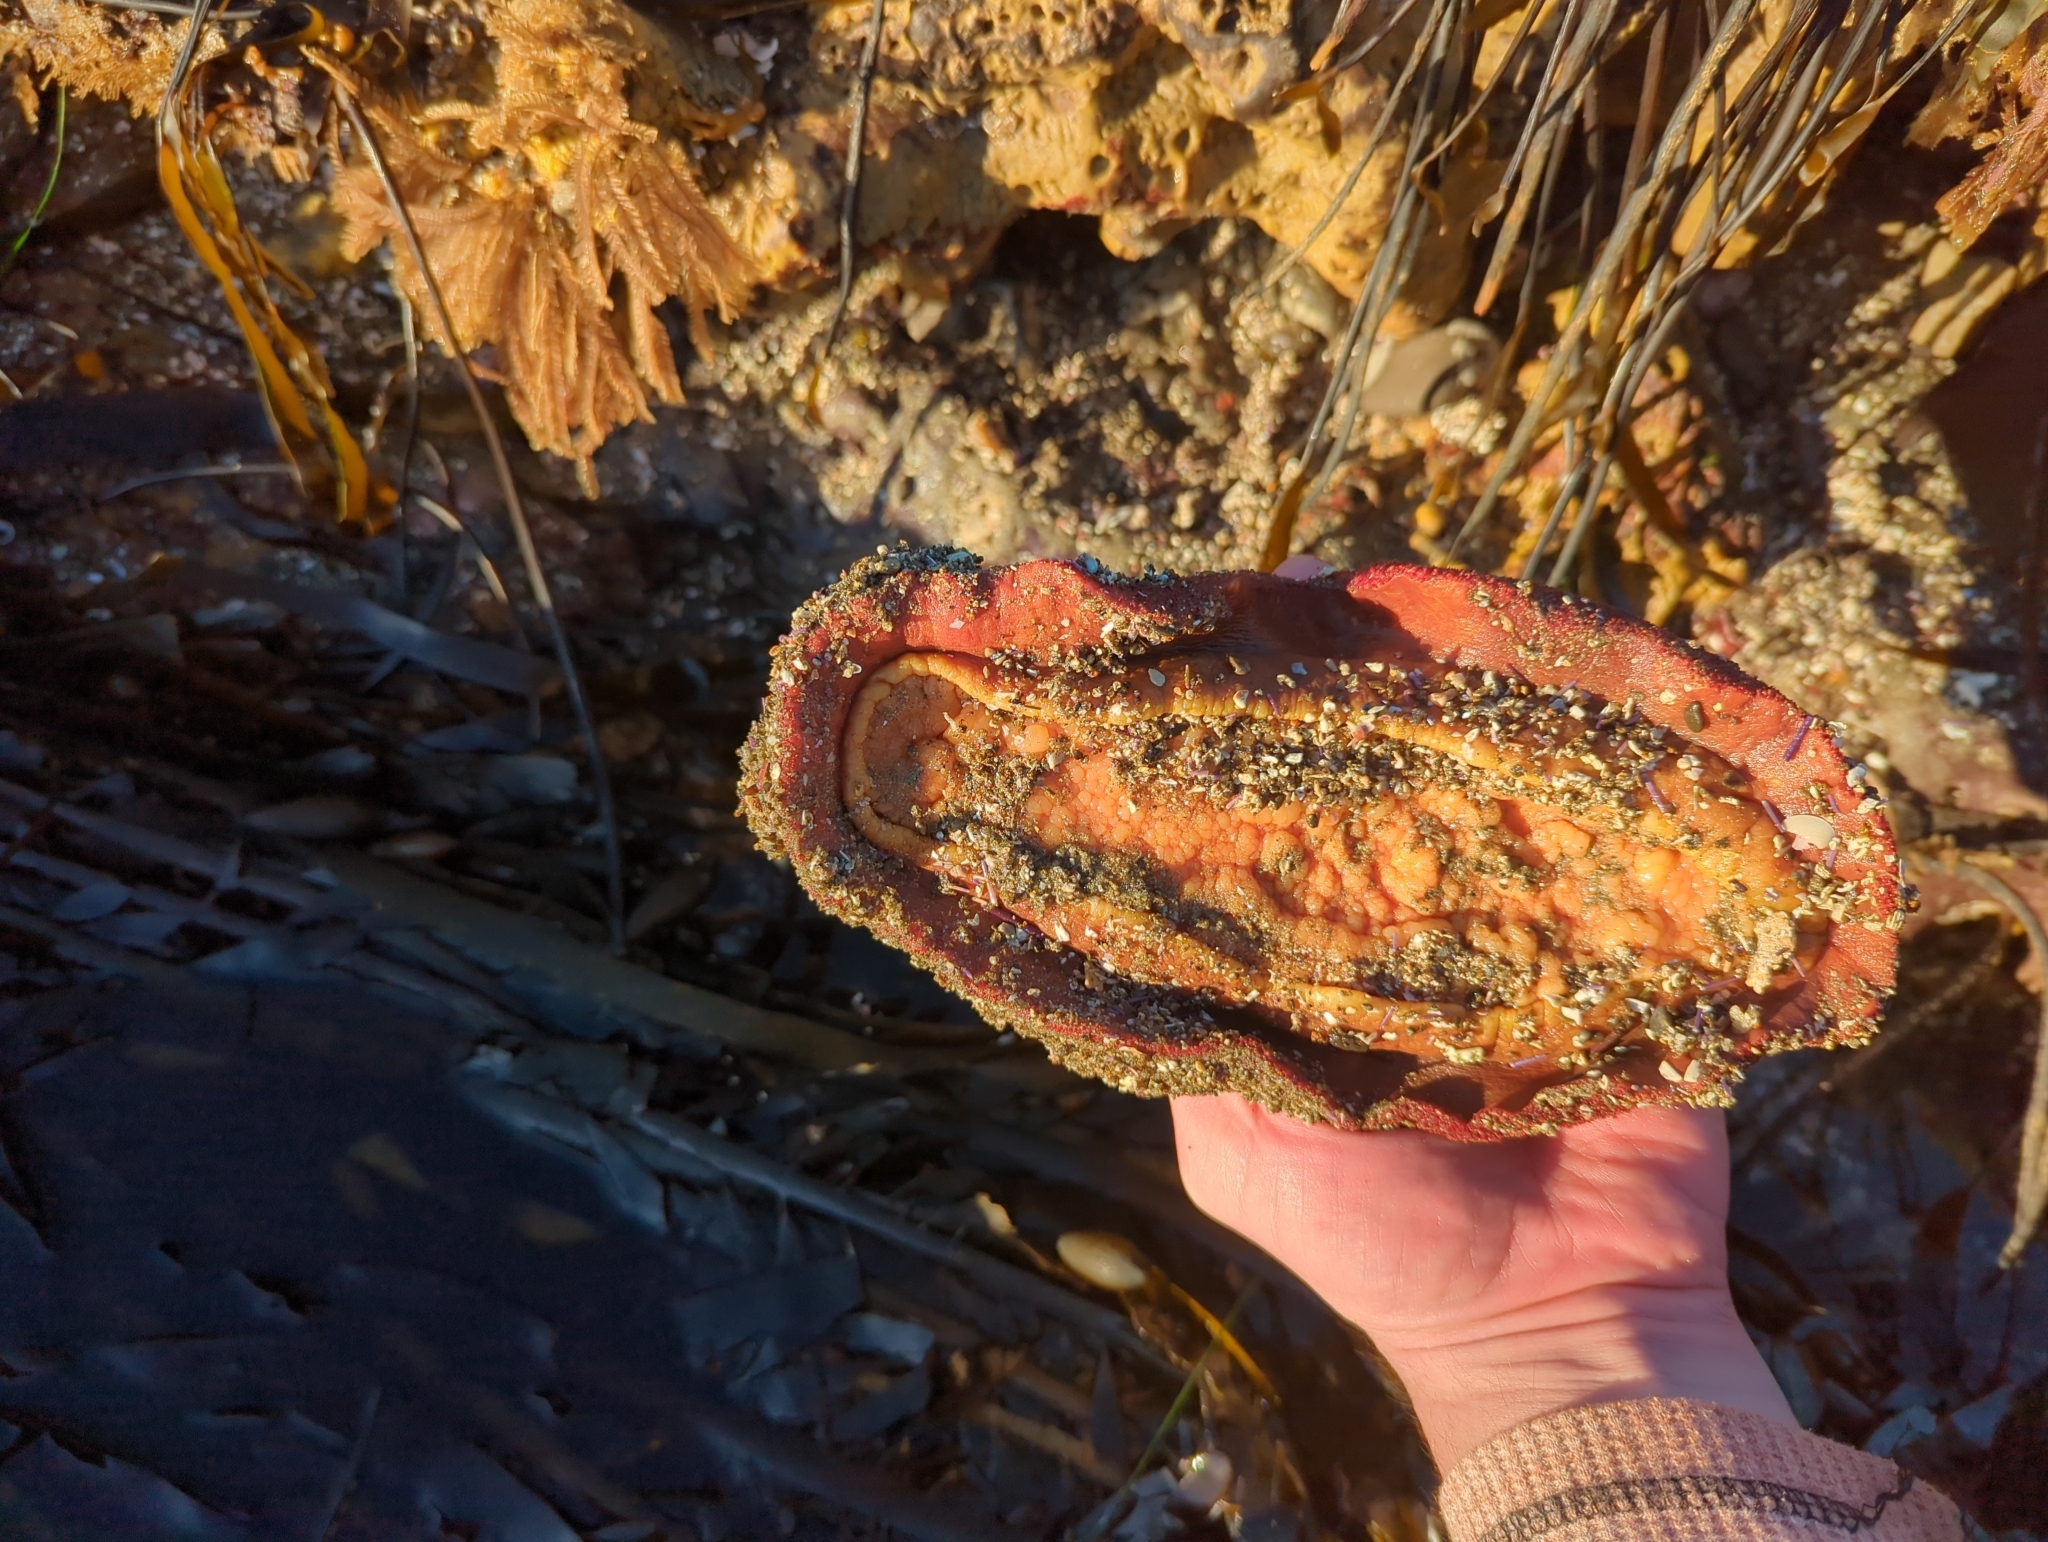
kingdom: Animalia
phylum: Mollusca
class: Polyplacophora
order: Chitonida
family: Acanthochitonidae
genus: Cryptochiton
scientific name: Cryptochiton stelleri
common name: Giant pacific chiton
